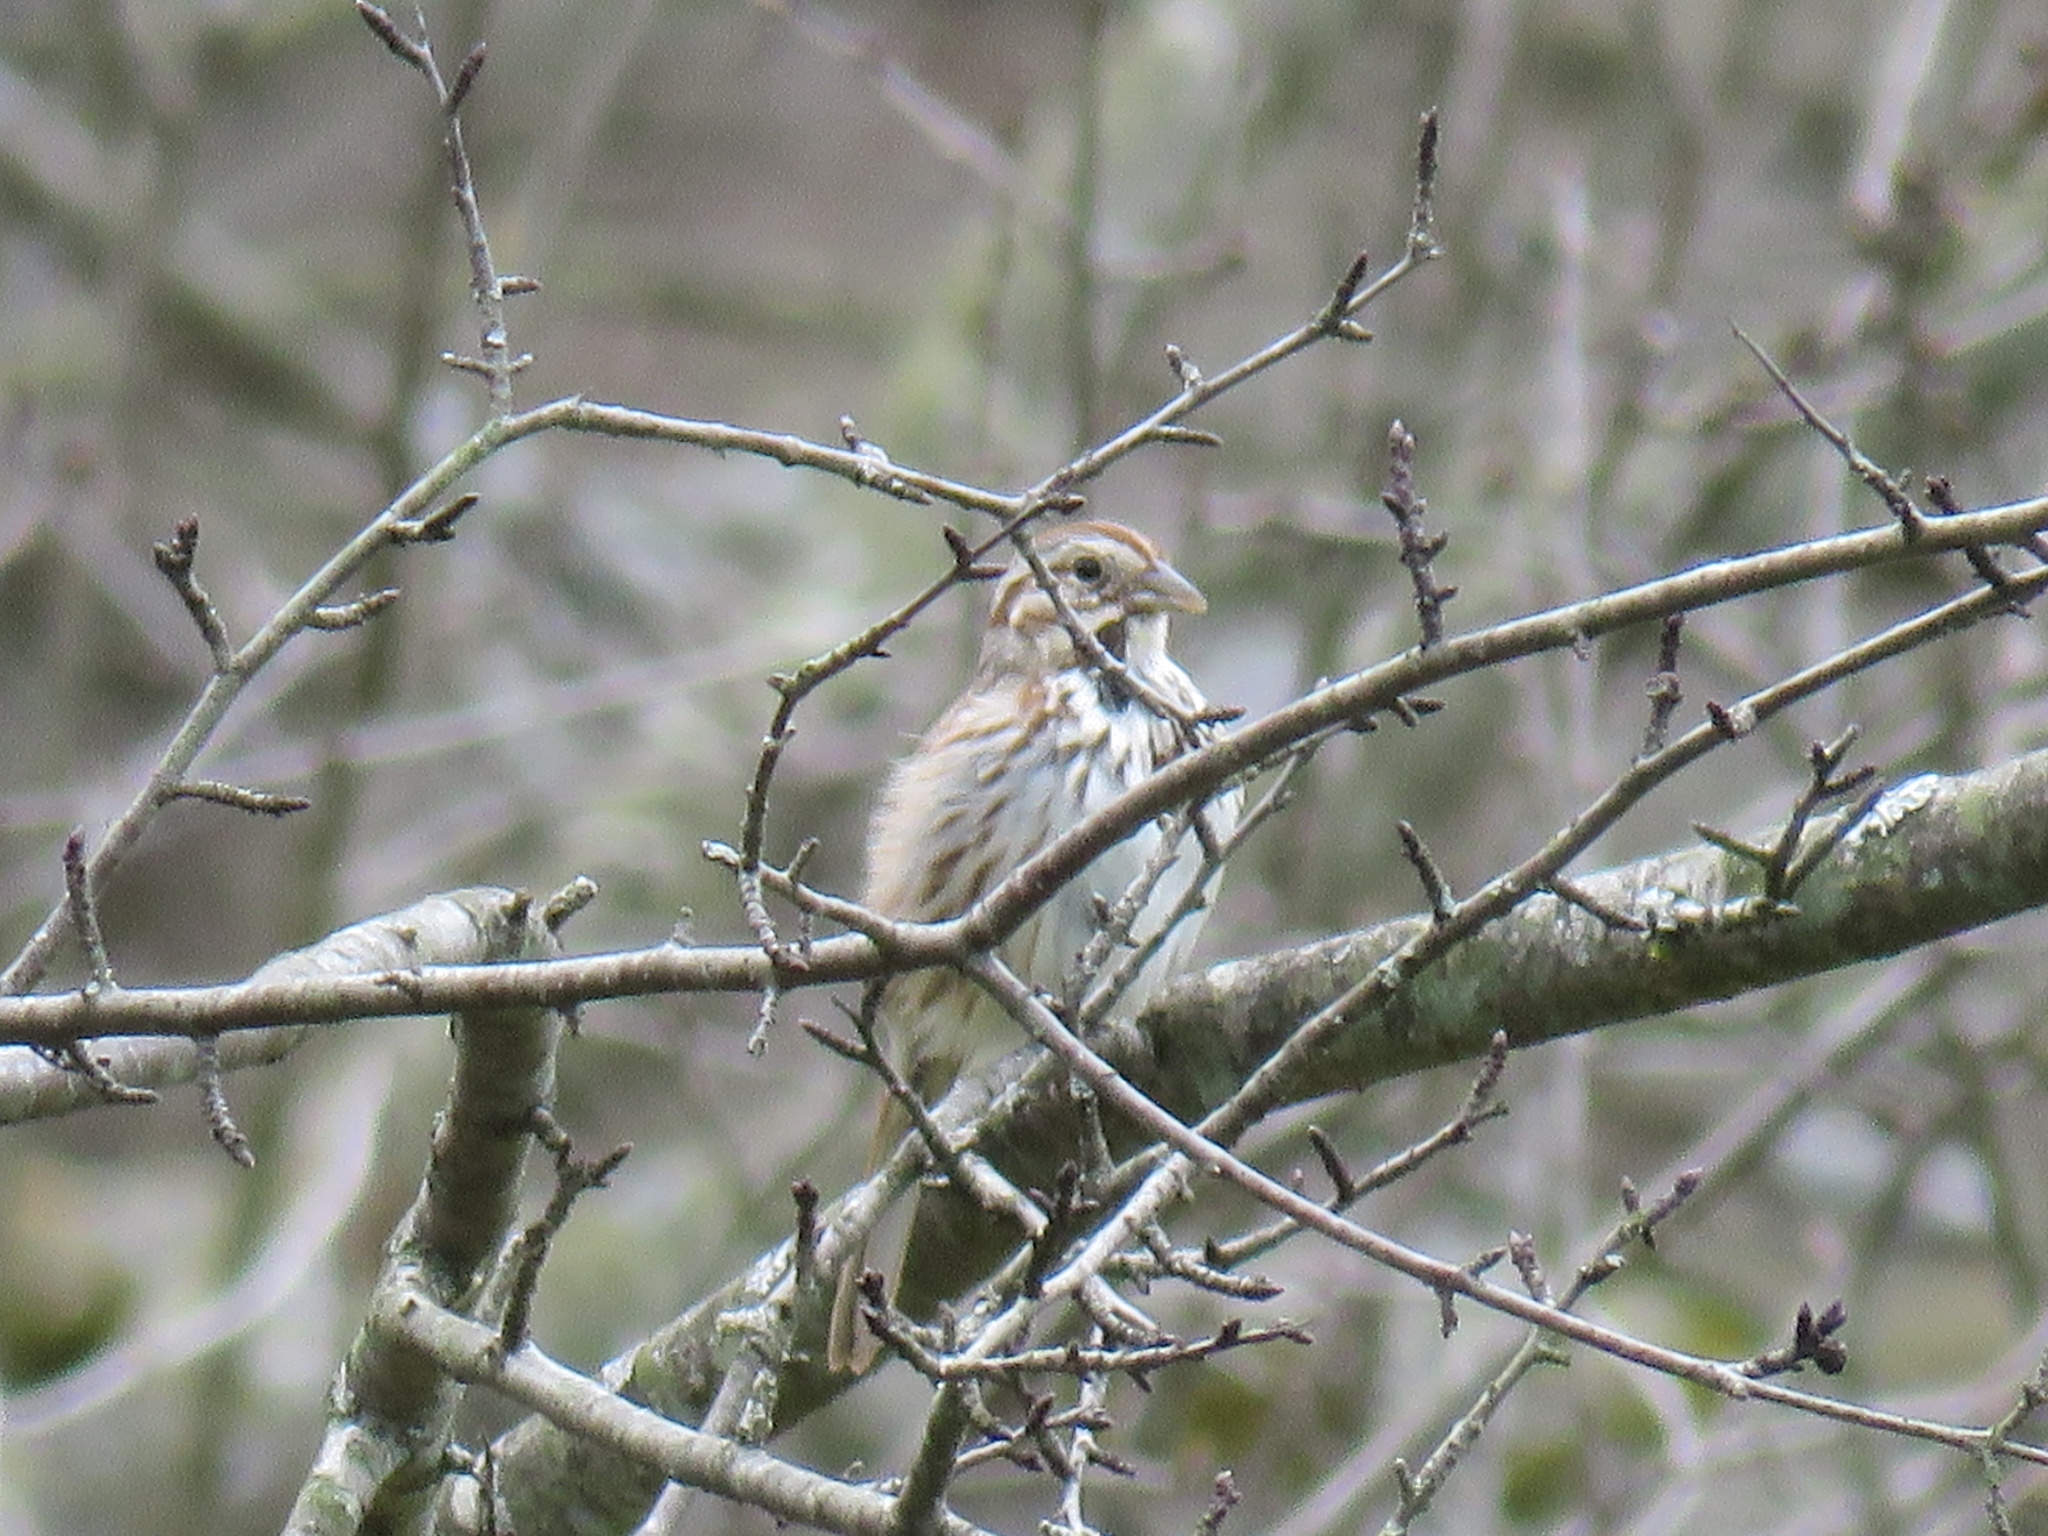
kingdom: Animalia
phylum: Chordata
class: Aves
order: Passeriformes
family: Passerellidae
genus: Melospiza
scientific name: Melospiza melodia
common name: Song sparrow
